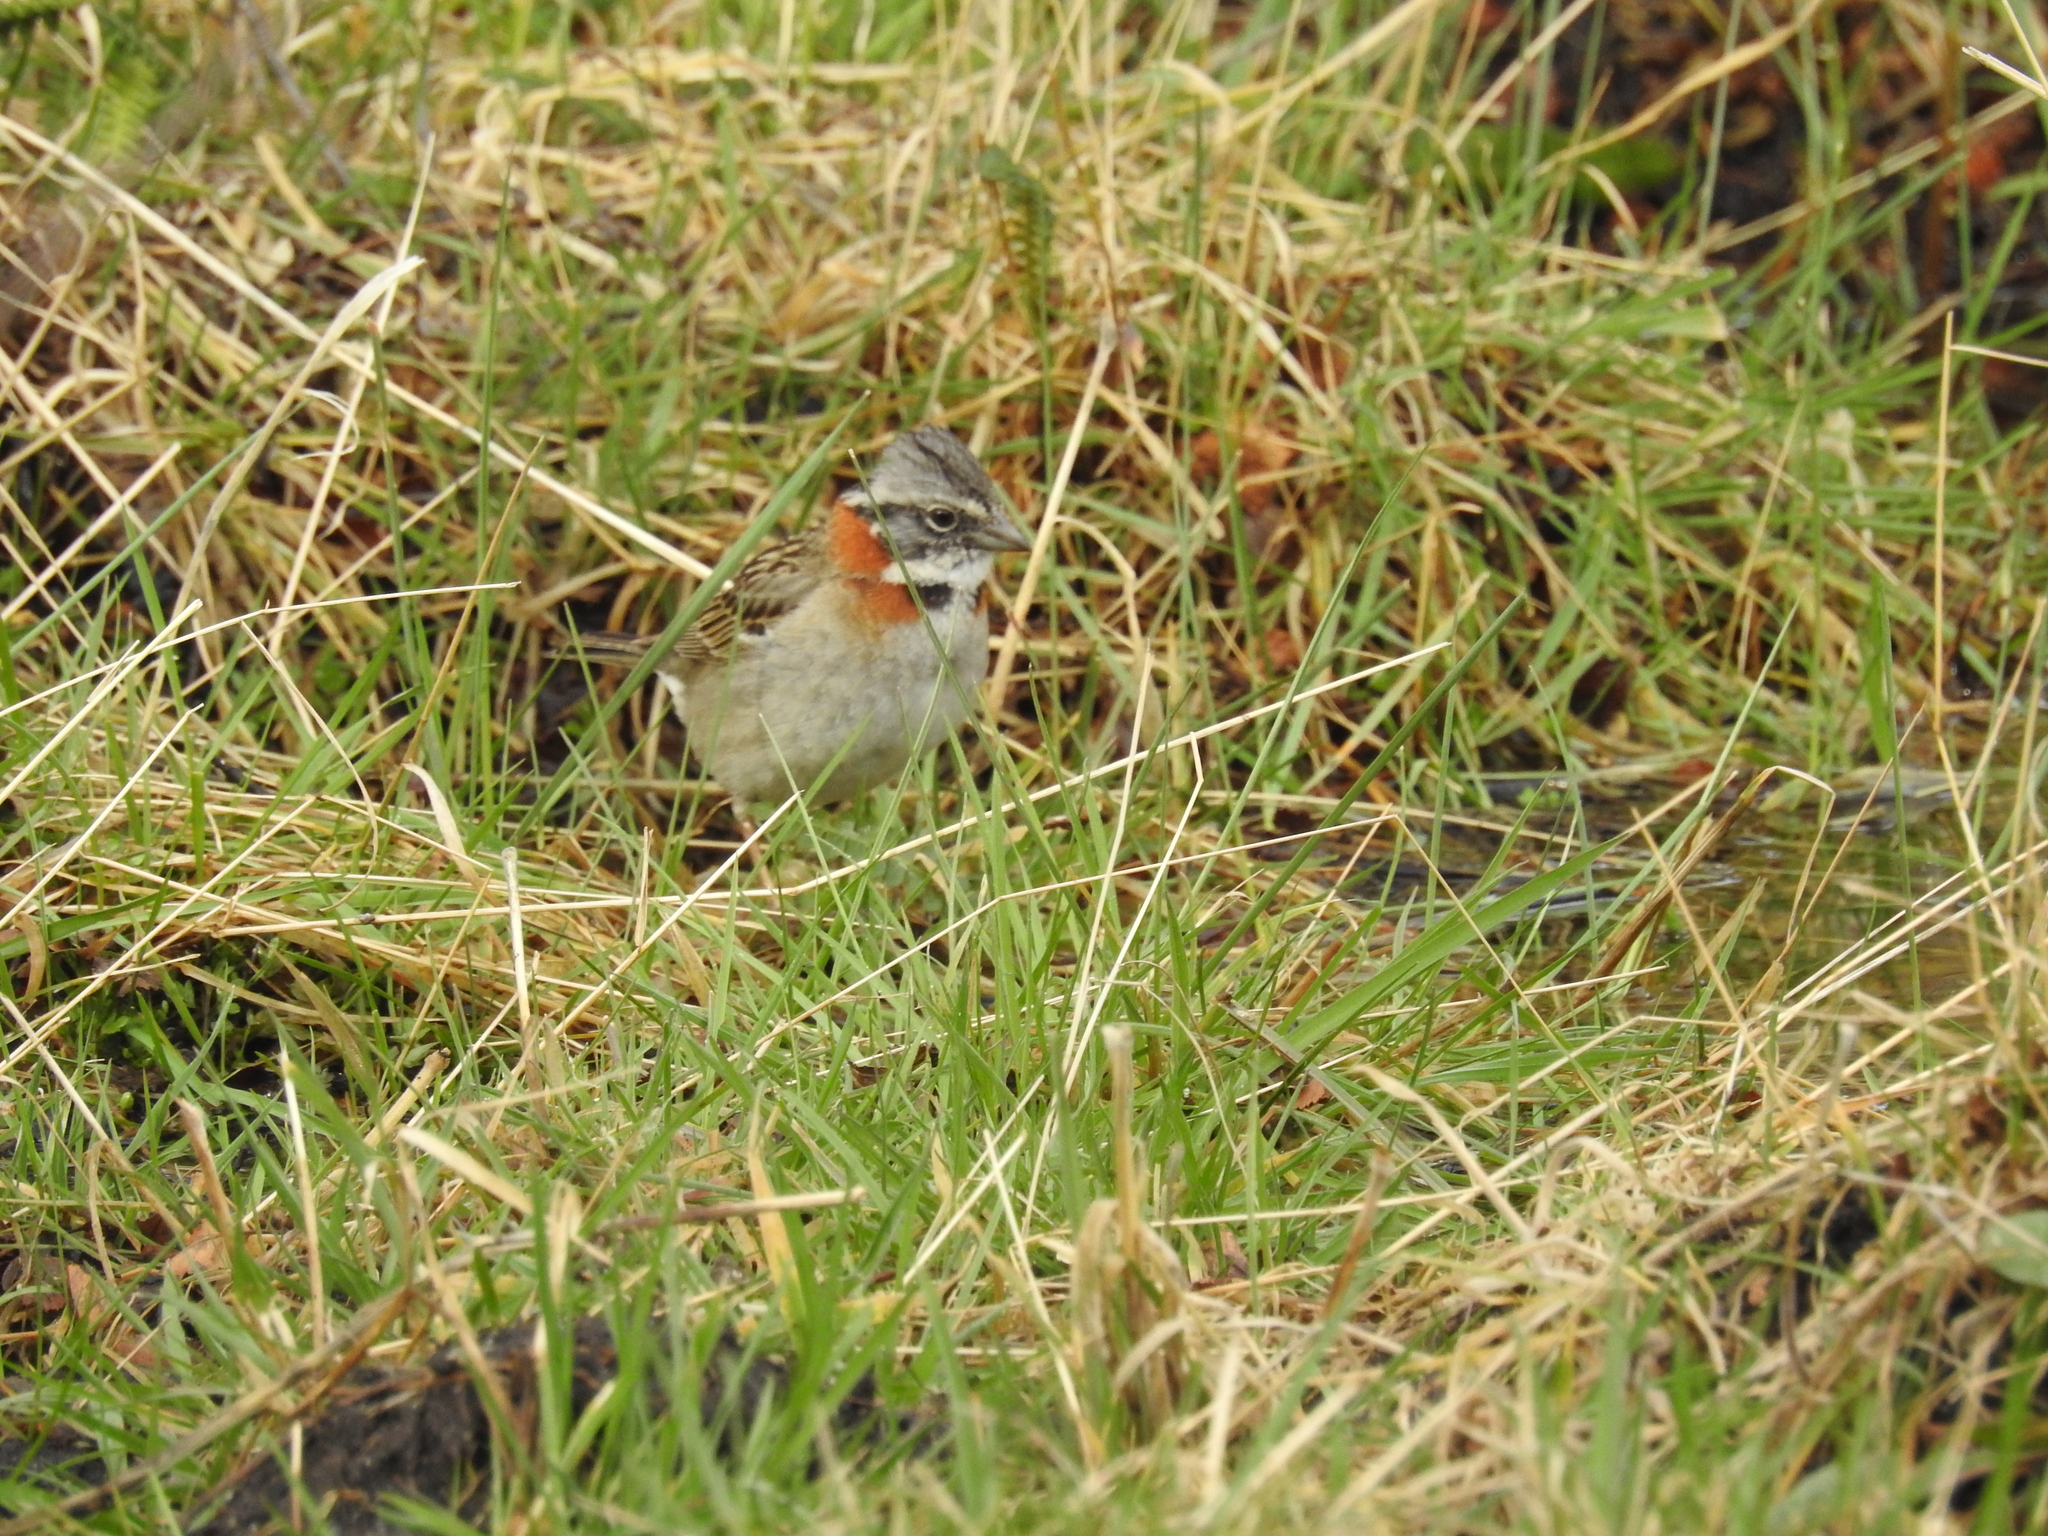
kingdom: Animalia
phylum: Chordata
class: Aves
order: Passeriformes
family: Passerellidae
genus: Zonotrichia
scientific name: Zonotrichia capensis
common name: Rufous-collared sparrow
